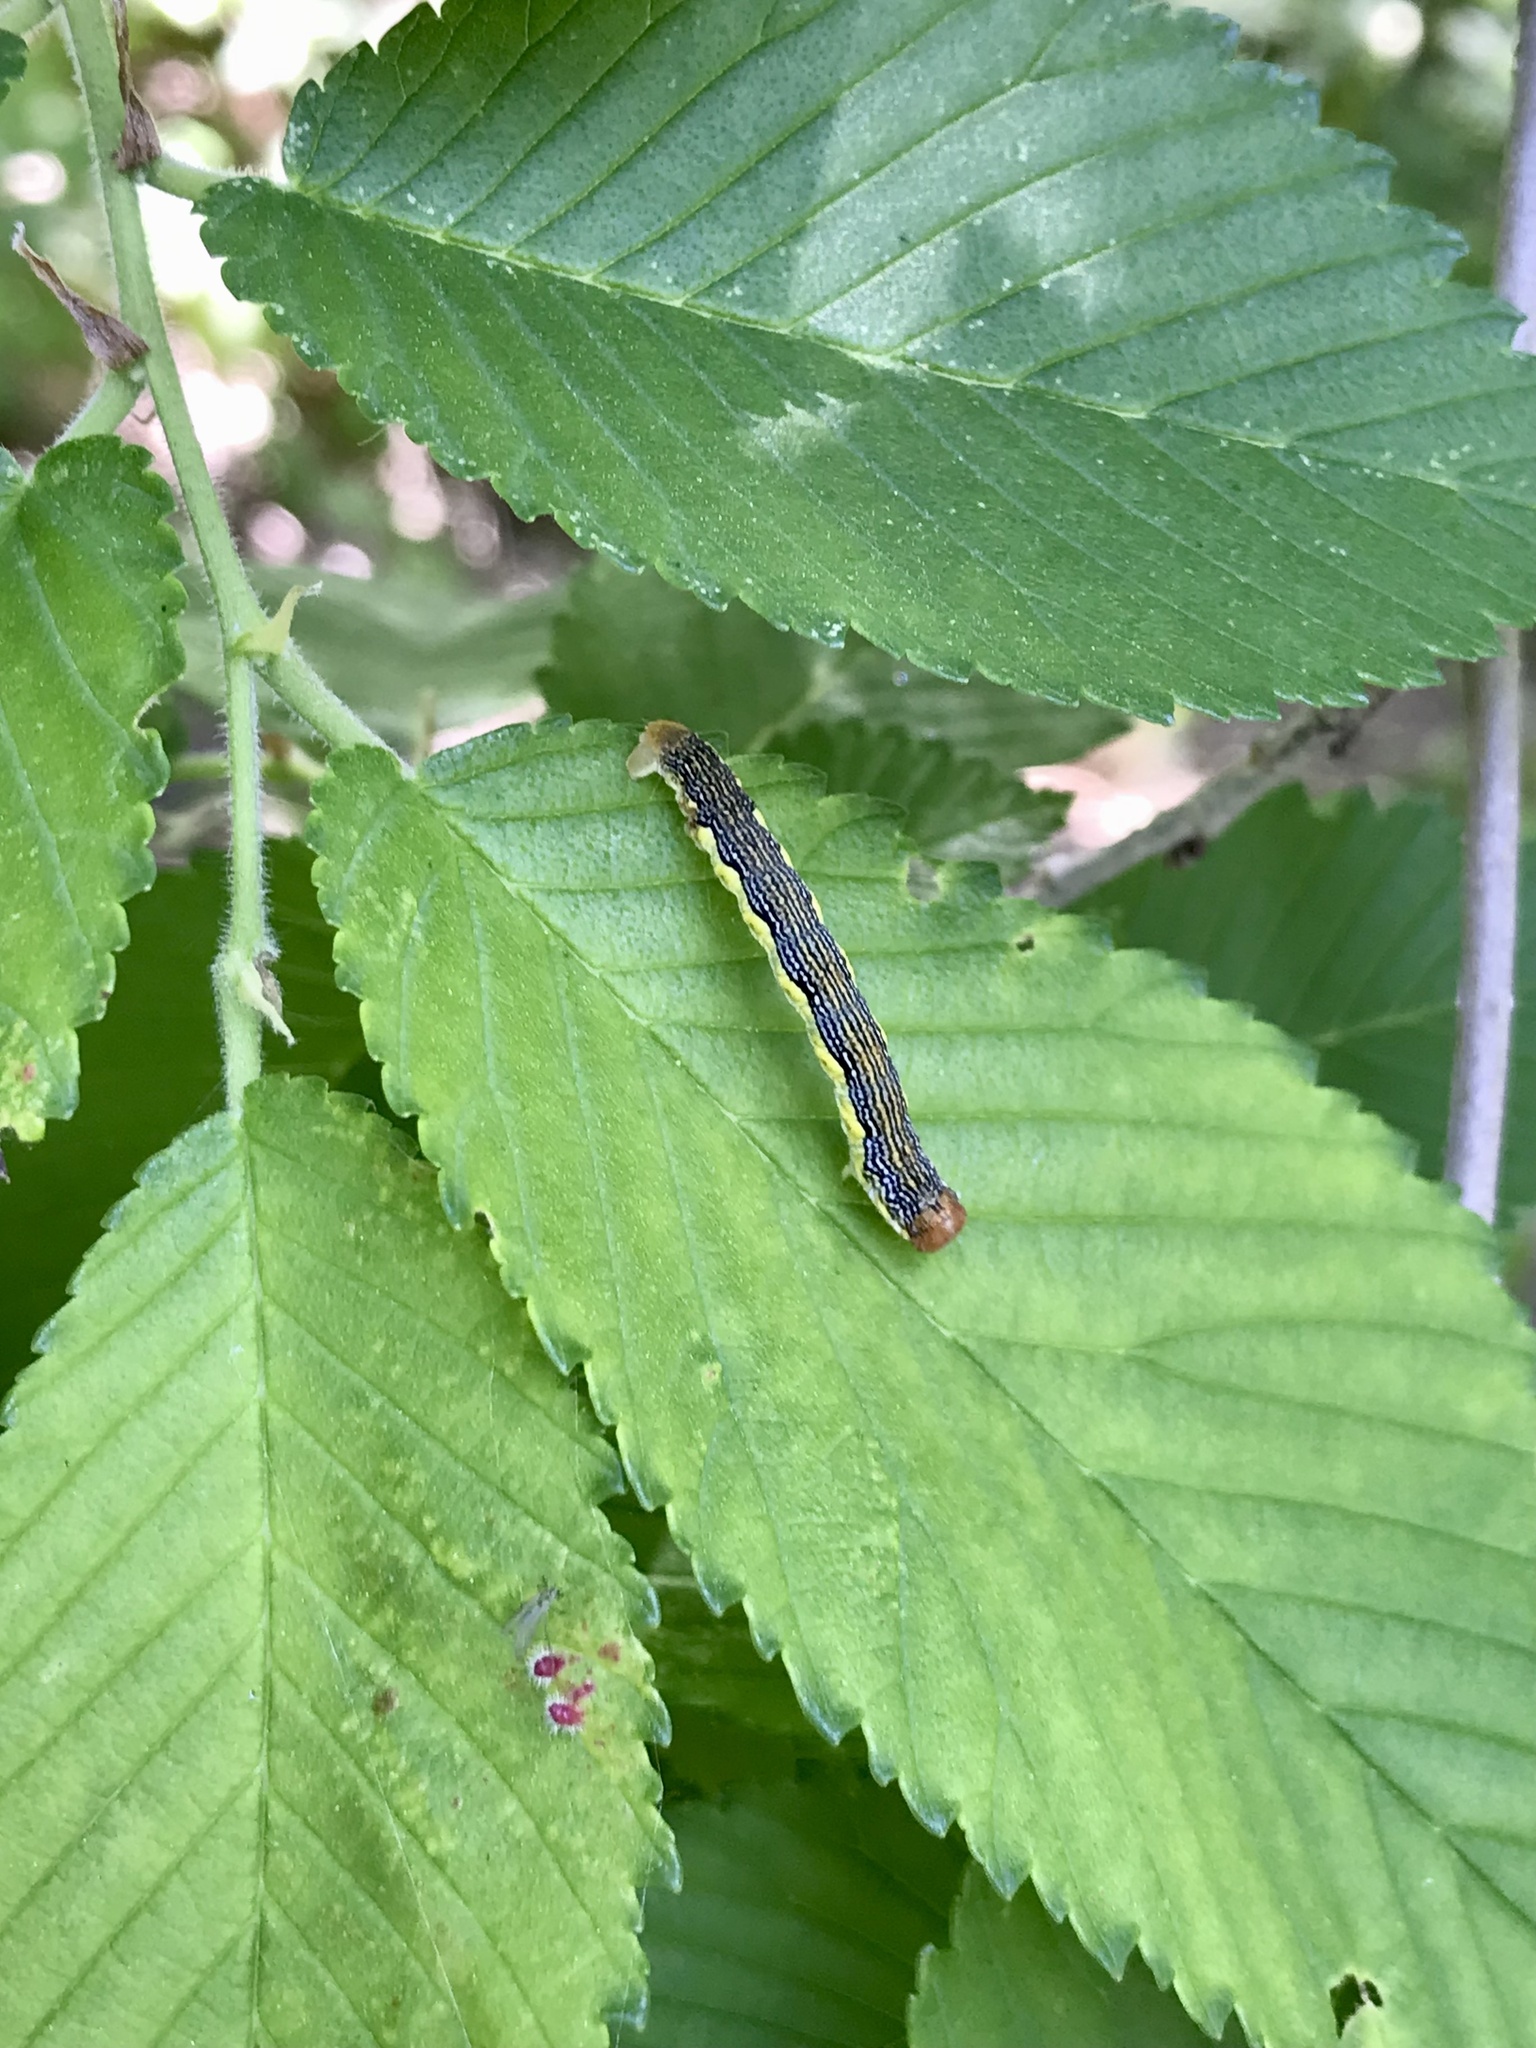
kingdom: Animalia
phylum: Arthropoda
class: Insecta
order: Lepidoptera
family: Geometridae
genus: Erannis
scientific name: Erannis tiliaria
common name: Linden looper
